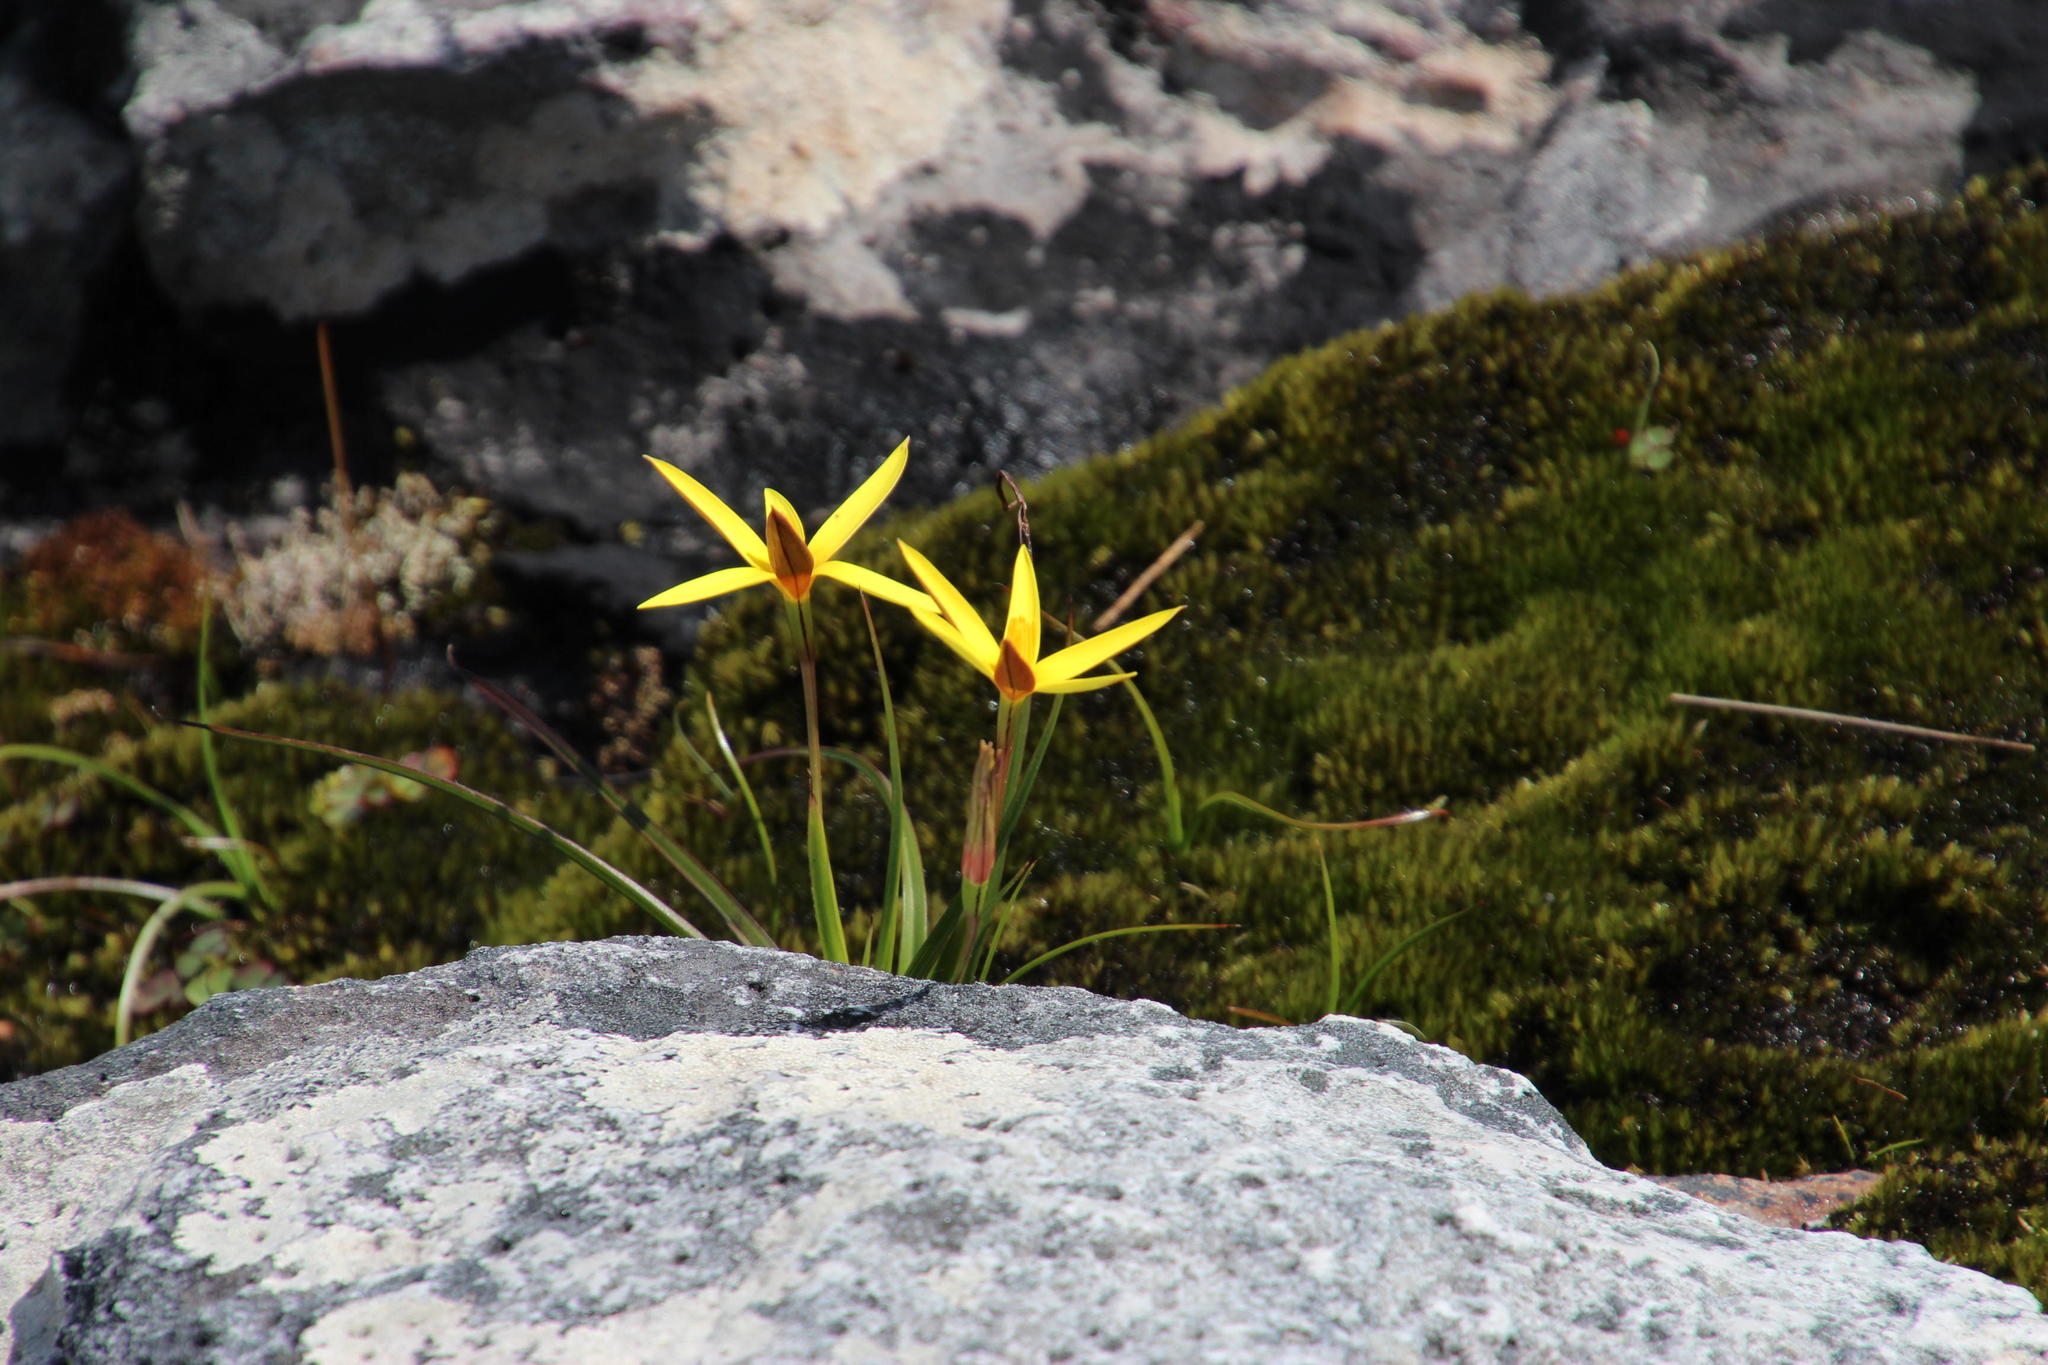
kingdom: Plantae
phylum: Tracheophyta
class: Liliopsida
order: Asparagales
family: Hypoxidaceae
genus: Pauridia
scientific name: Pauridia capensis
